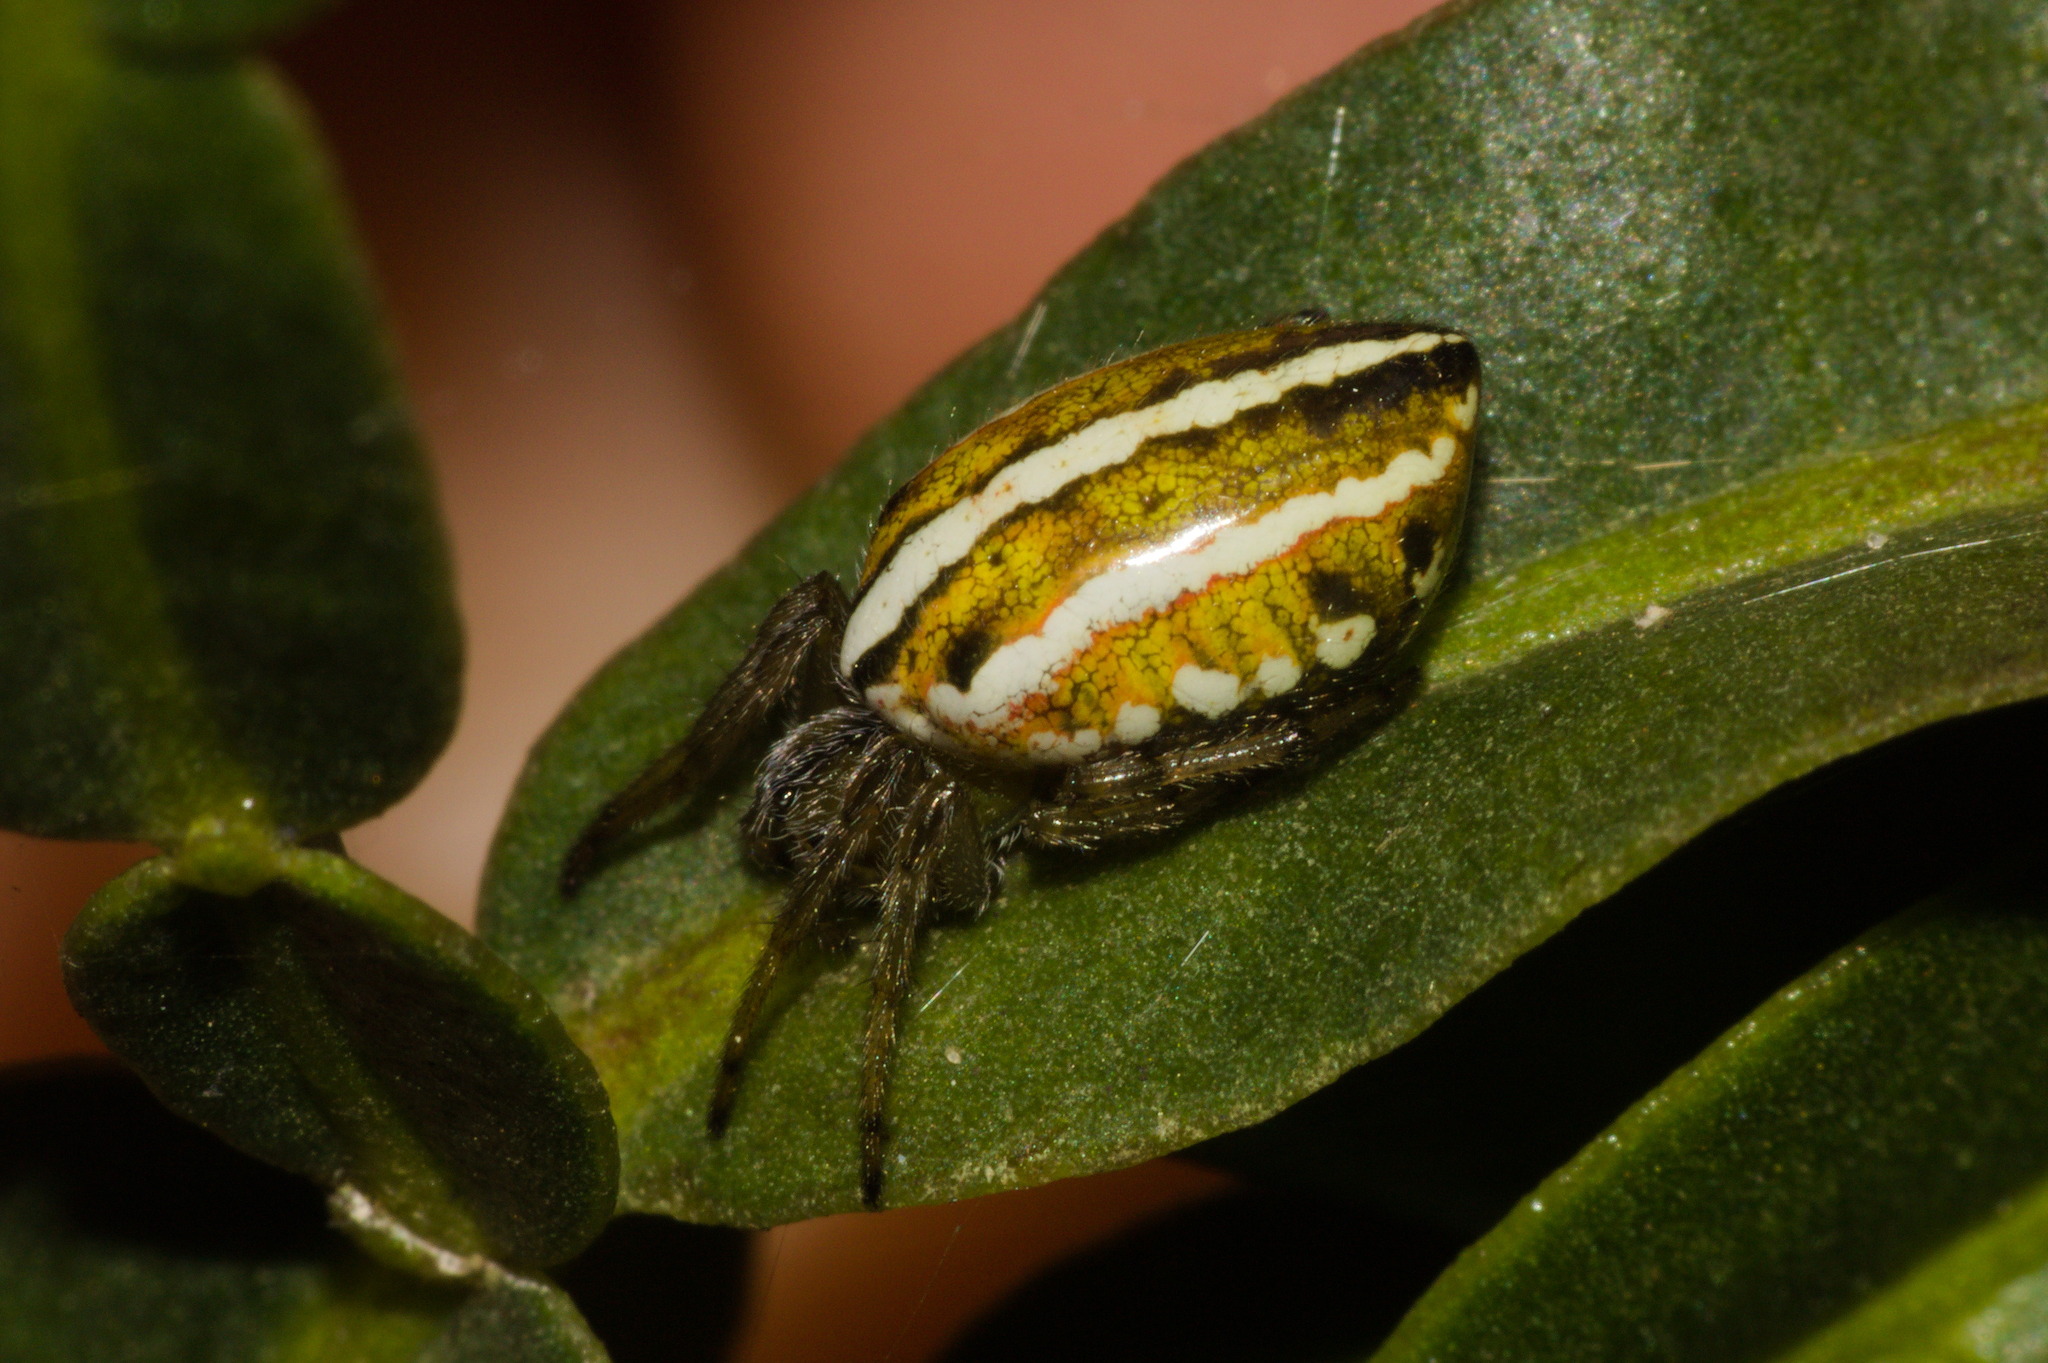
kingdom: Animalia
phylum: Arthropoda
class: Arachnida
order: Araneae
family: Araneidae
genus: Alpaida
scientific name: Alpaida rubellula
